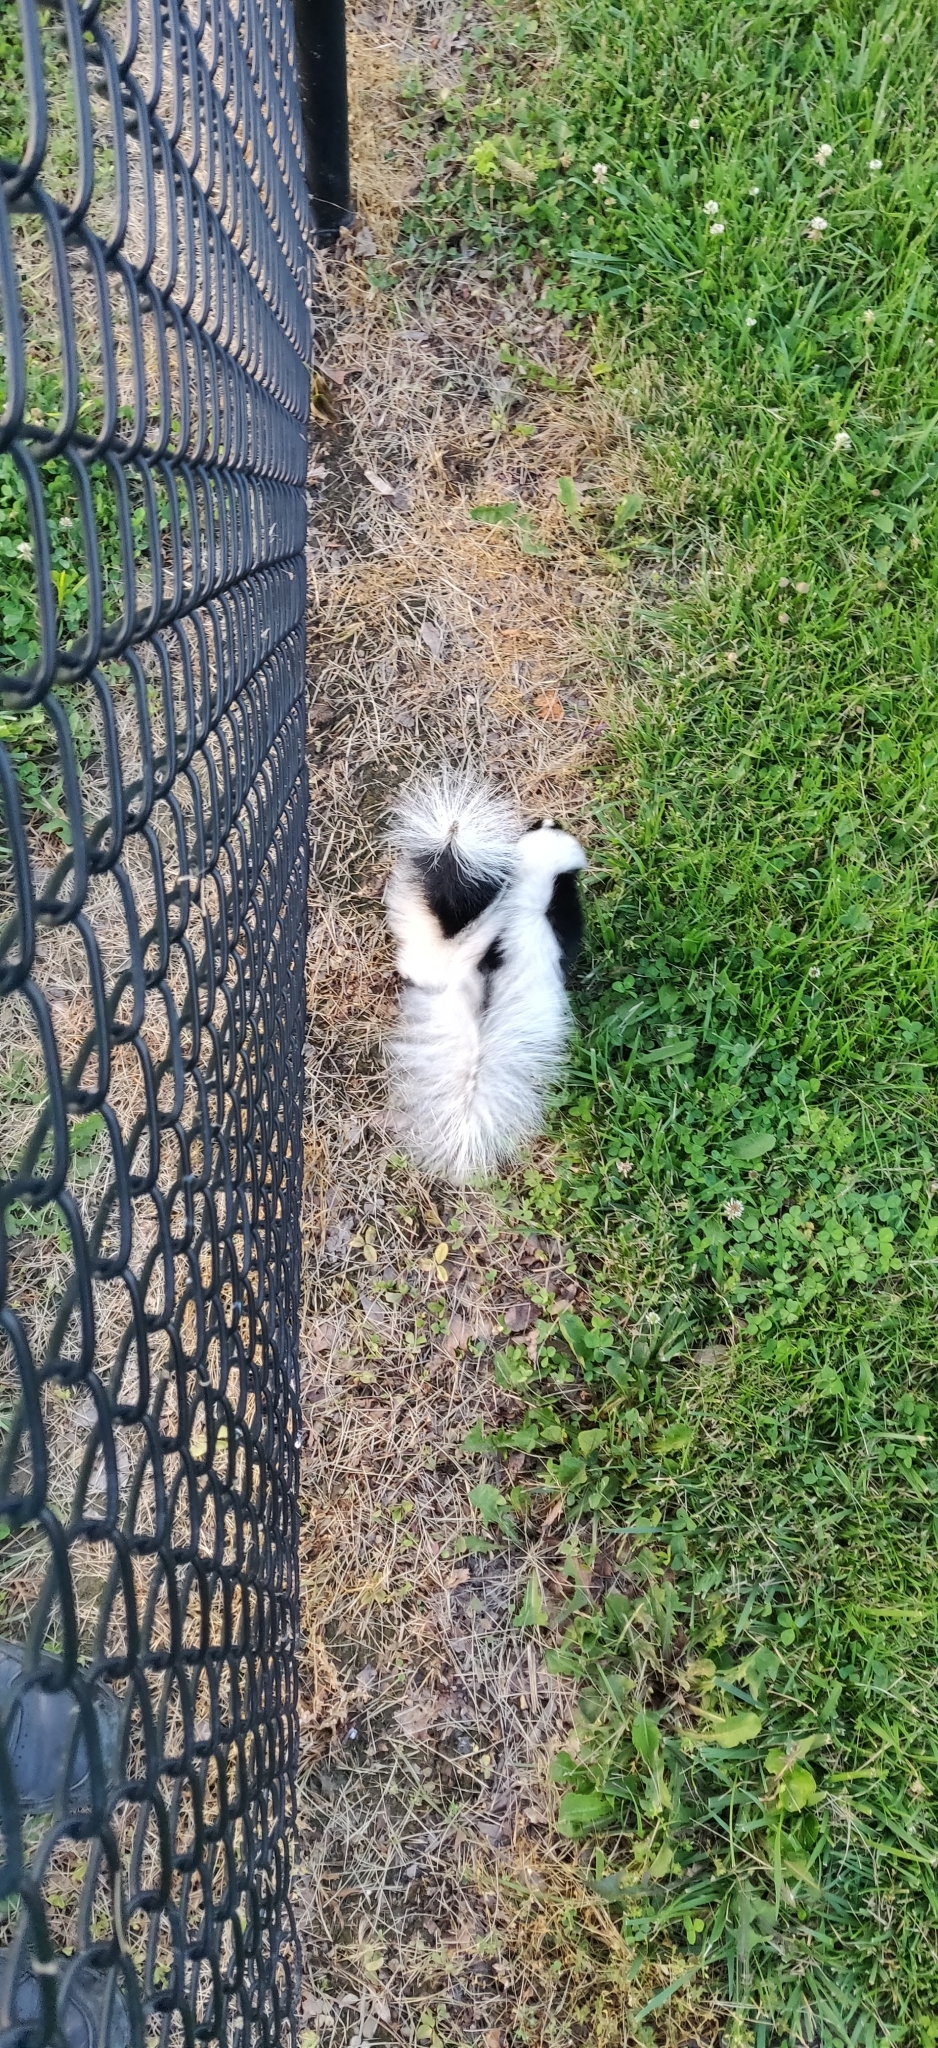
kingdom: Animalia
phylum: Chordata
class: Mammalia
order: Carnivora
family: Mephitidae
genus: Mephitis
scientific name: Mephitis mephitis
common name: Striped skunk
